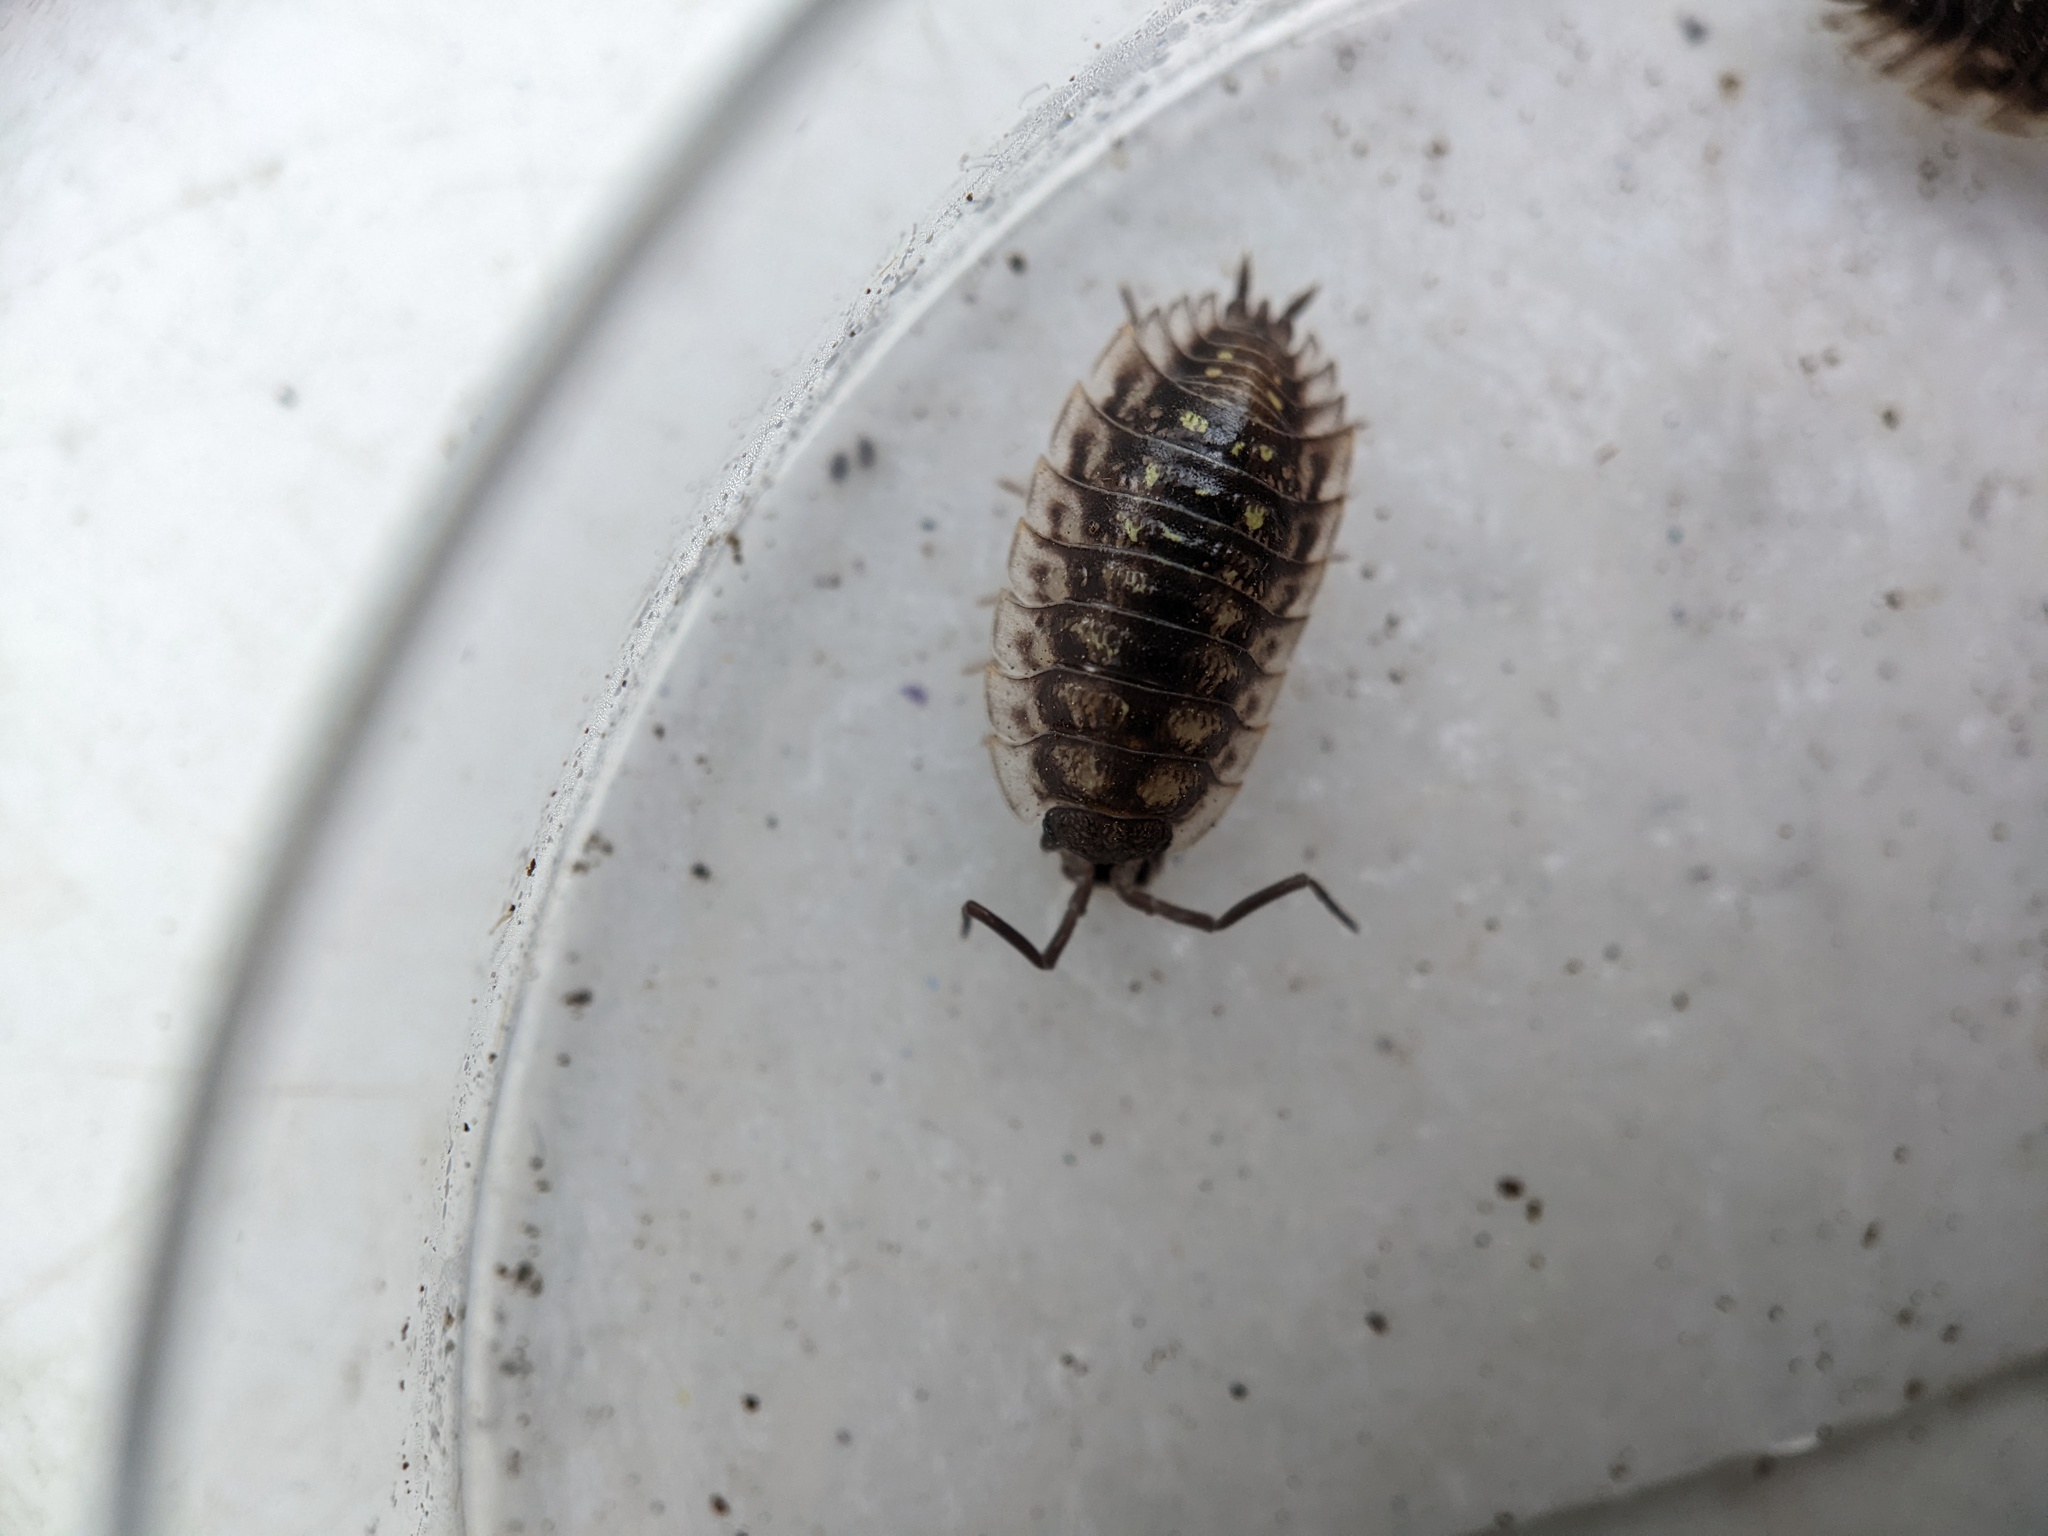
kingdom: Animalia
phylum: Arthropoda
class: Malacostraca
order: Isopoda
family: Oniscidae
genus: Oniscus
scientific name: Oniscus asellus
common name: Common shiny woodlouse
